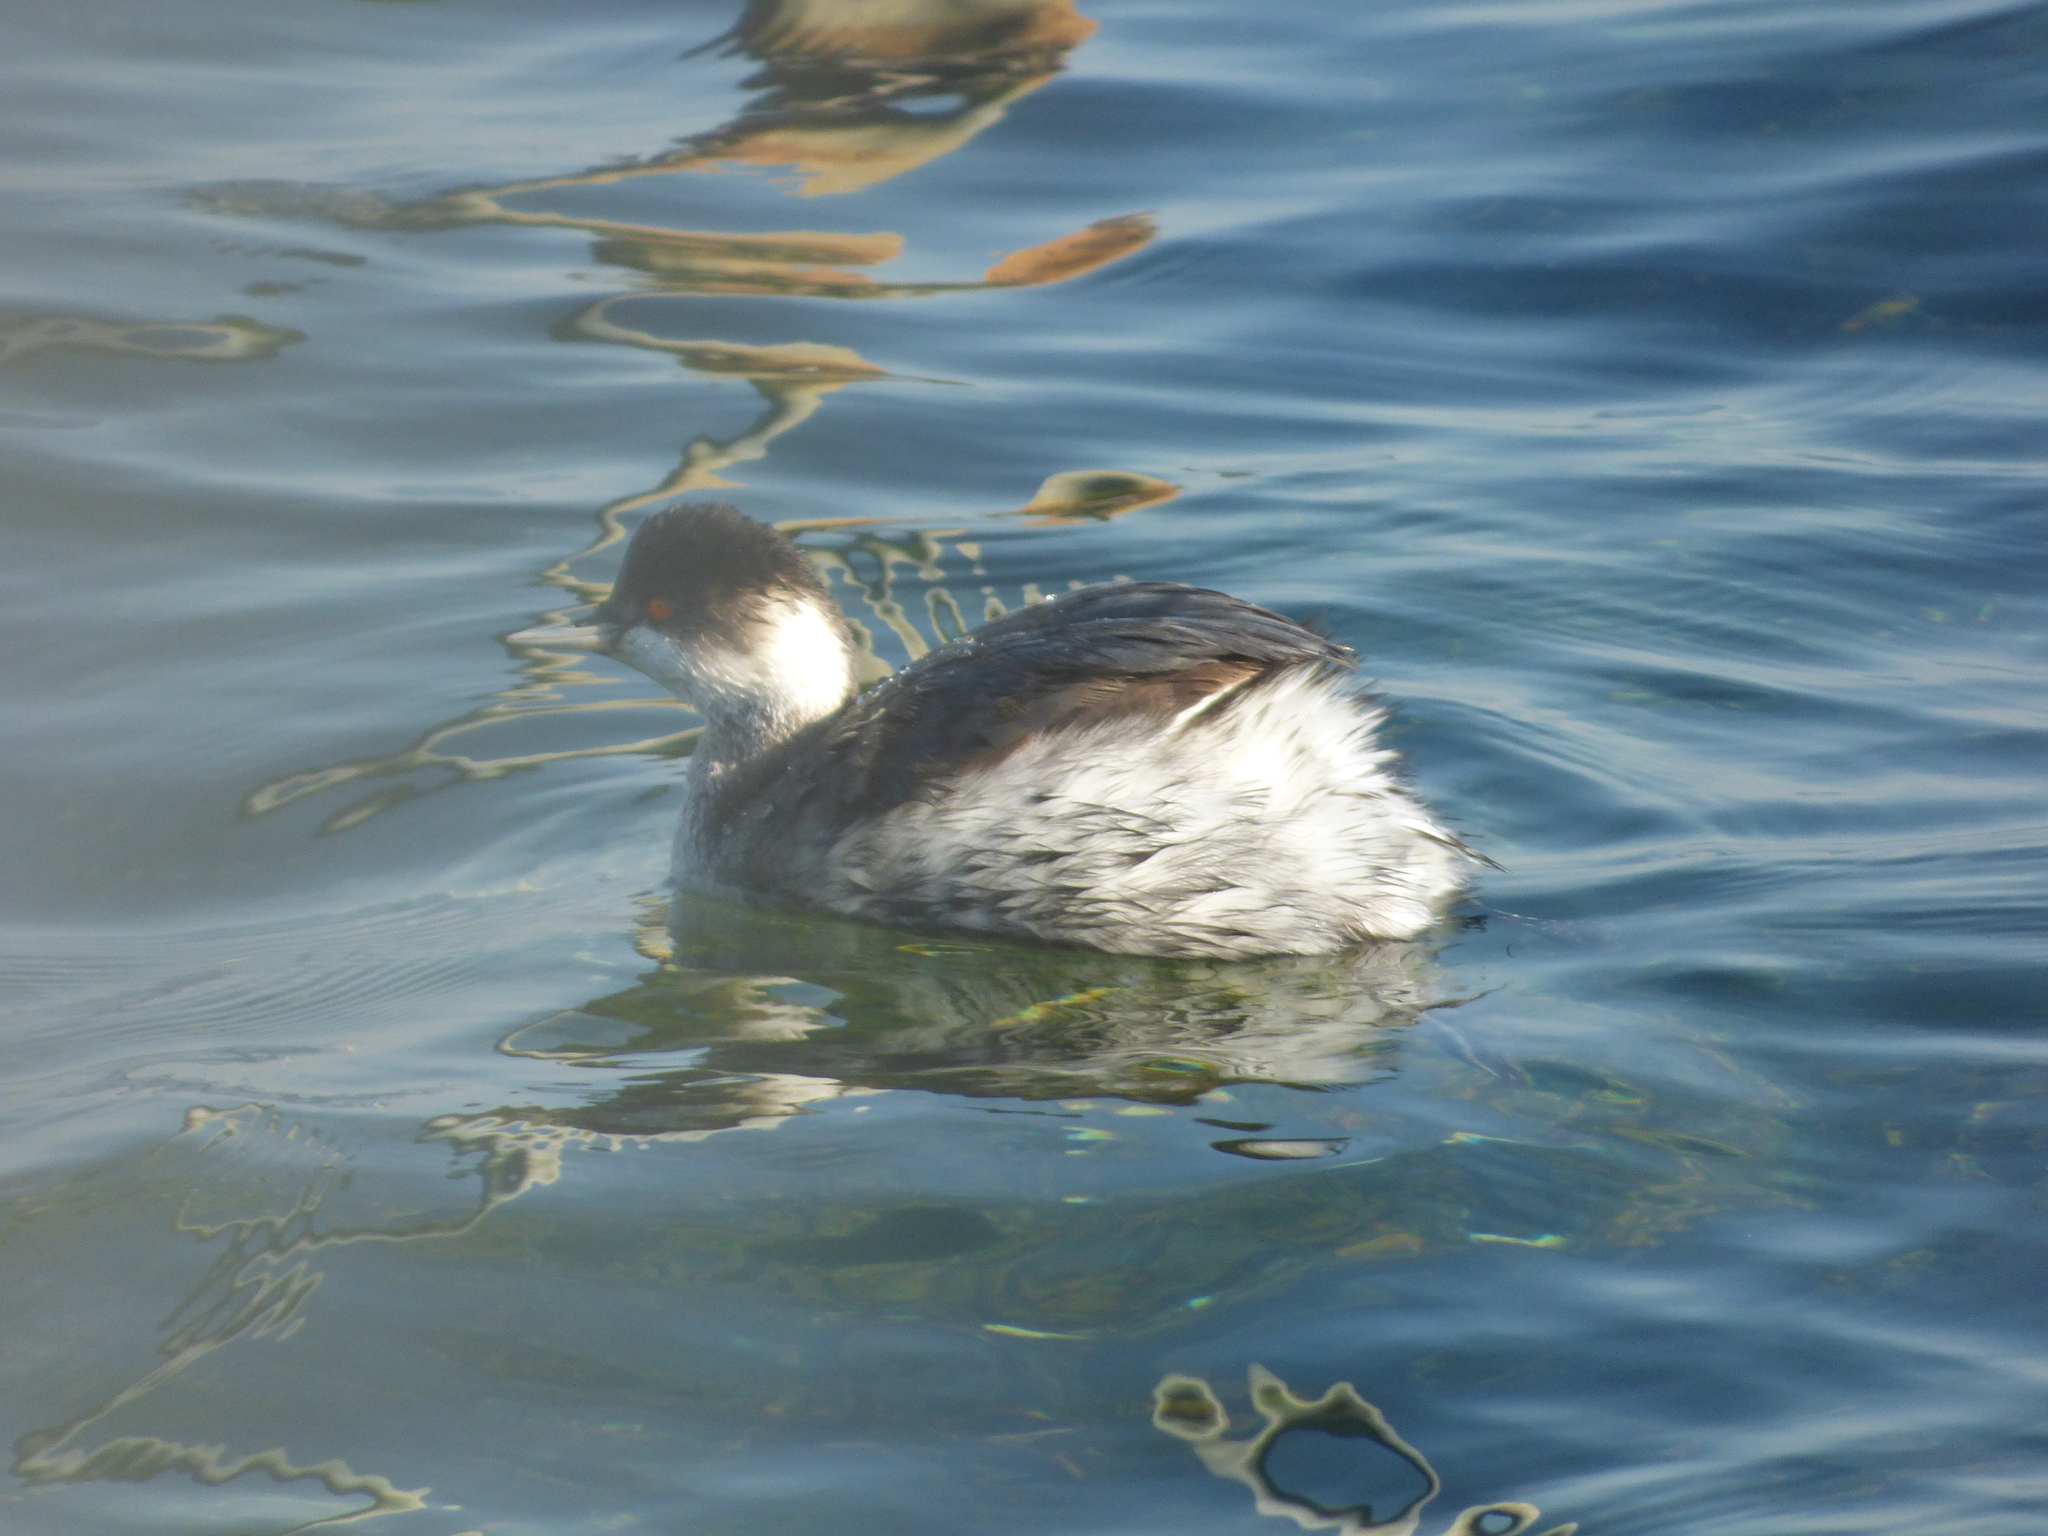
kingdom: Animalia
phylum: Chordata
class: Aves
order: Podicipediformes
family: Podicipedidae
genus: Podiceps
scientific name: Podiceps nigricollis
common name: Black-necked grebe
